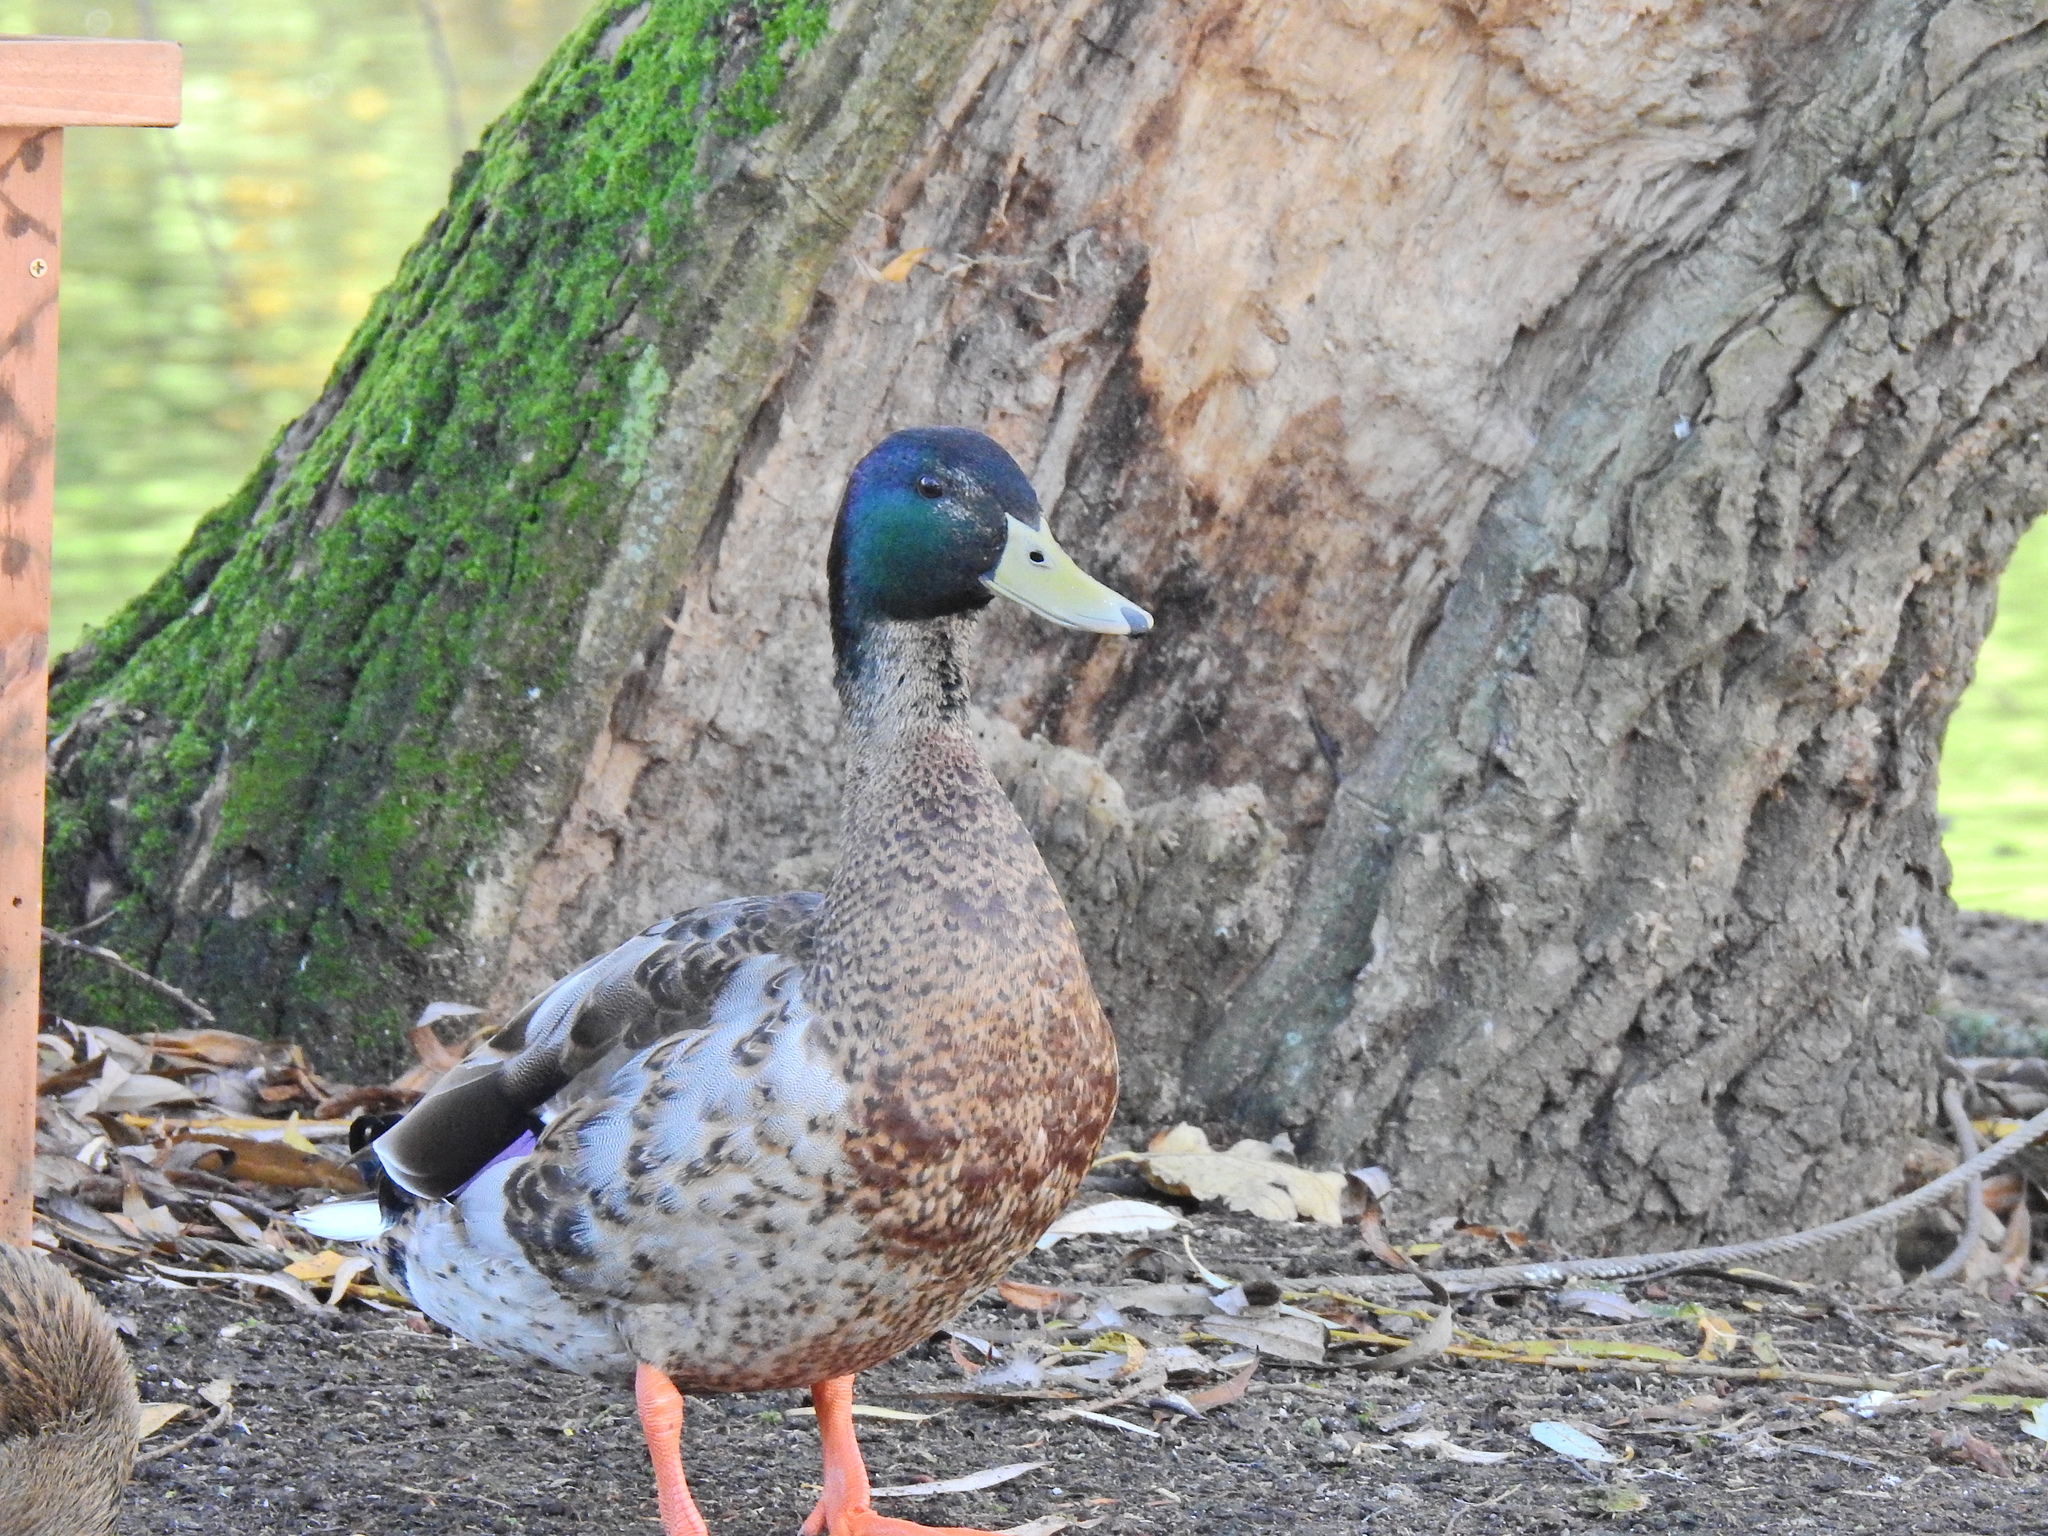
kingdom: Animalia
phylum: Chordata
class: Aves
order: Anseriformes
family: Anatidae
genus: Anas
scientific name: Anas platyrhynchos
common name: Mallard
